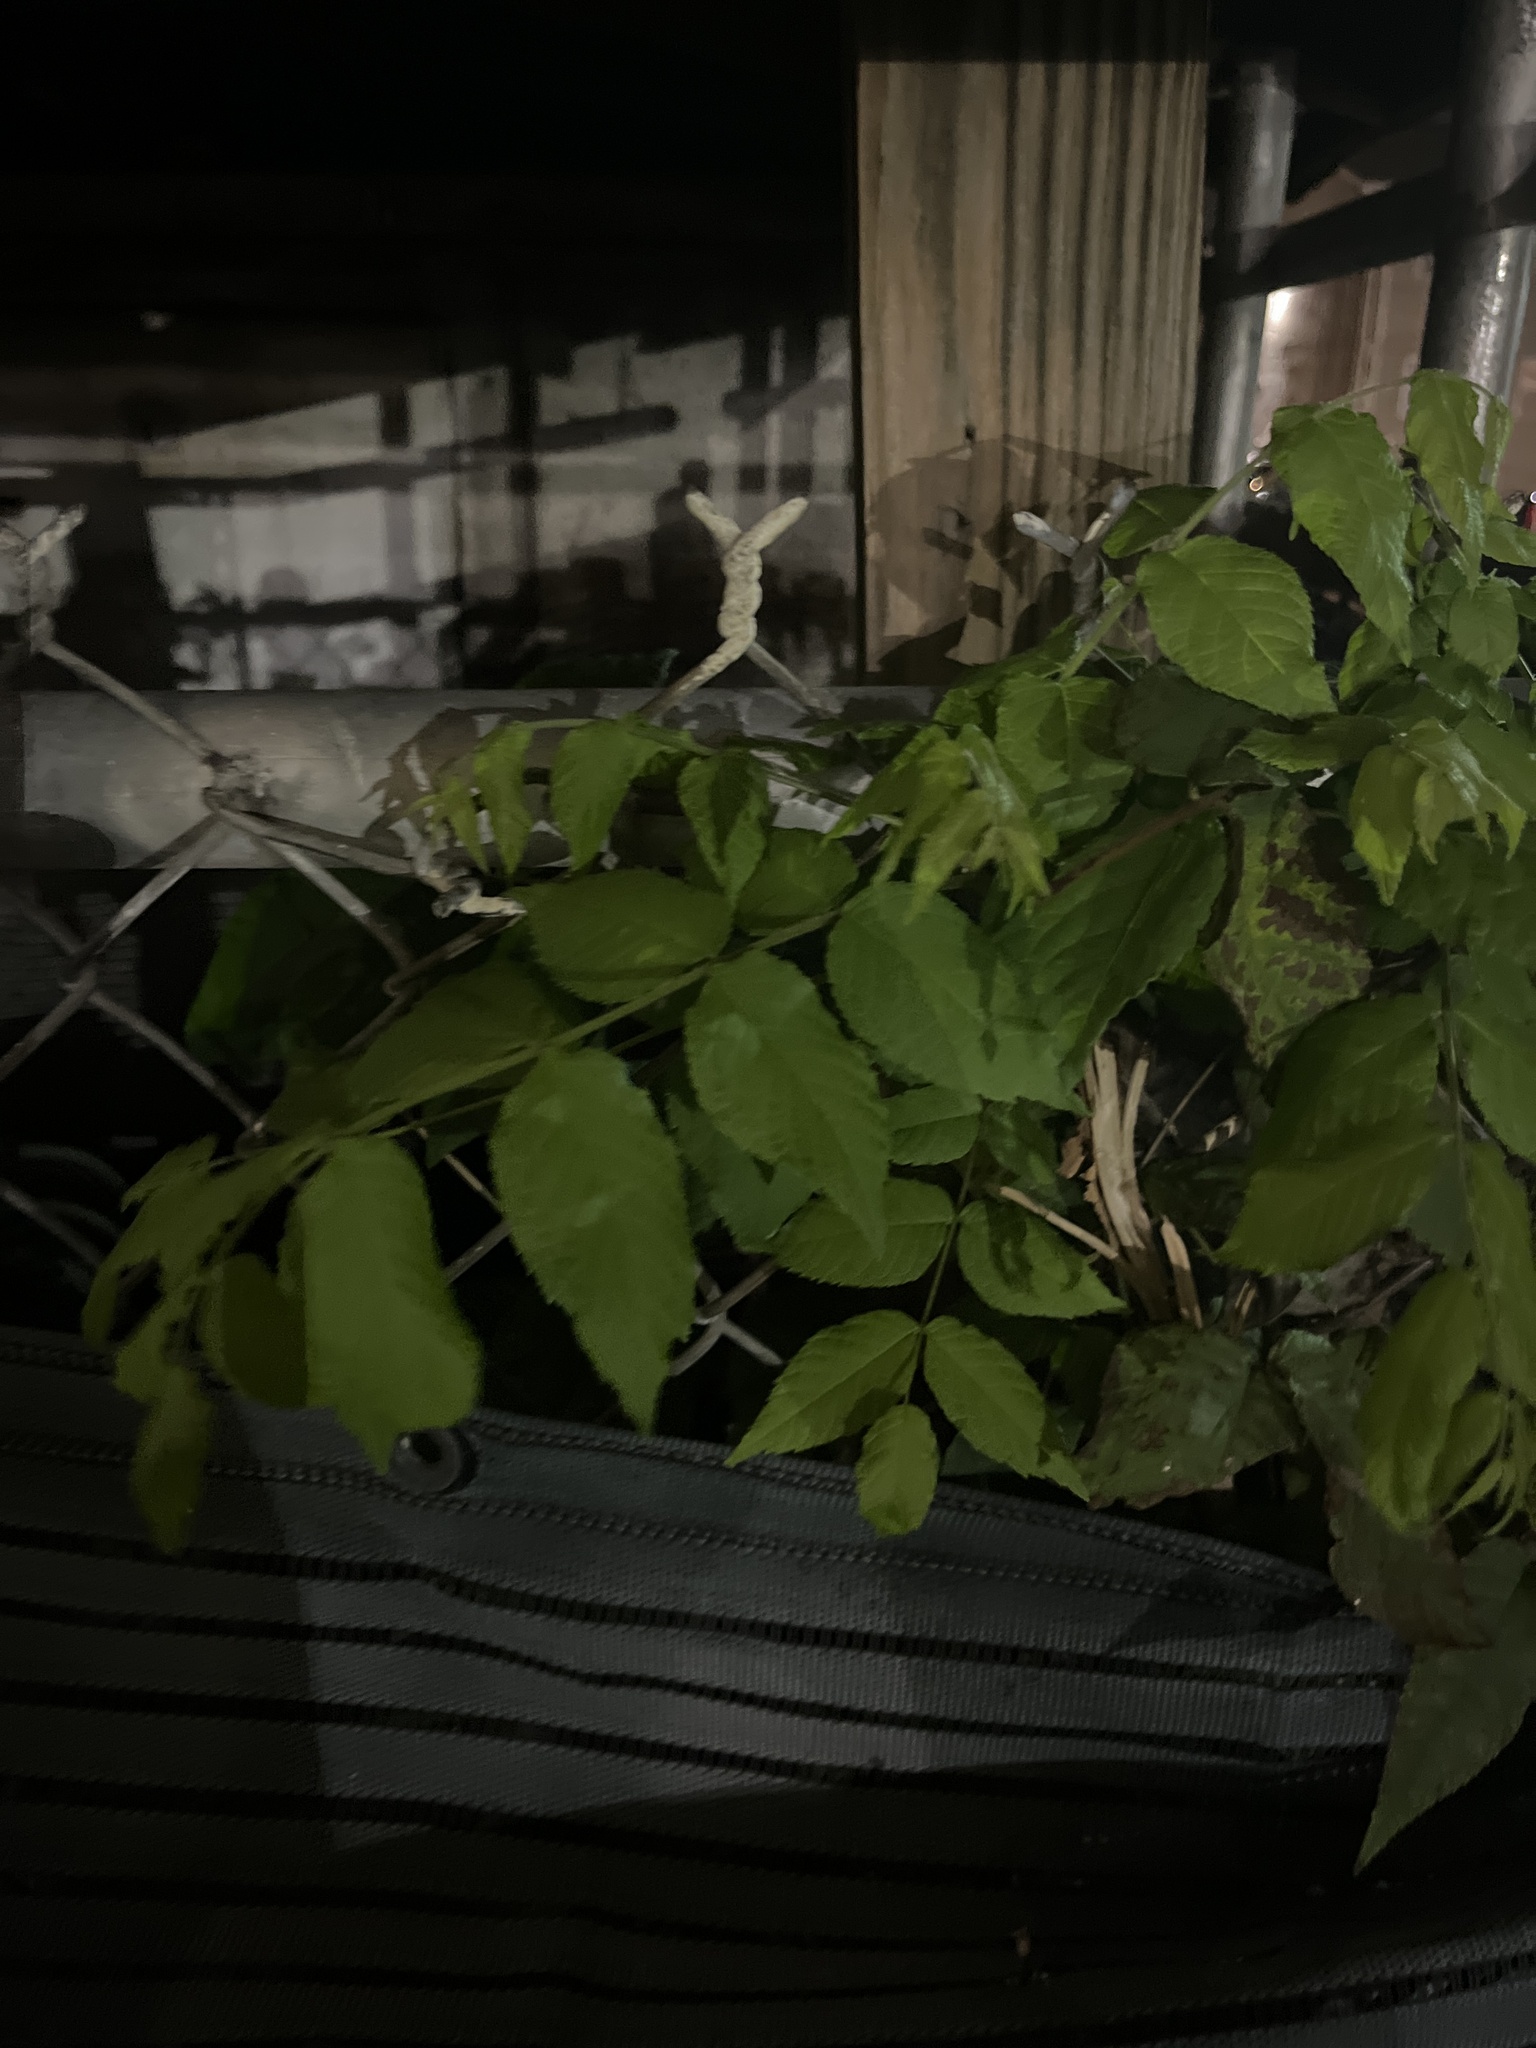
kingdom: Plantae
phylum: Tracheophyta
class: Magnoliopsida
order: Fagales
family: Juglandaceae
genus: Juglans
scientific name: Juglans nigra
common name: Black walnut
